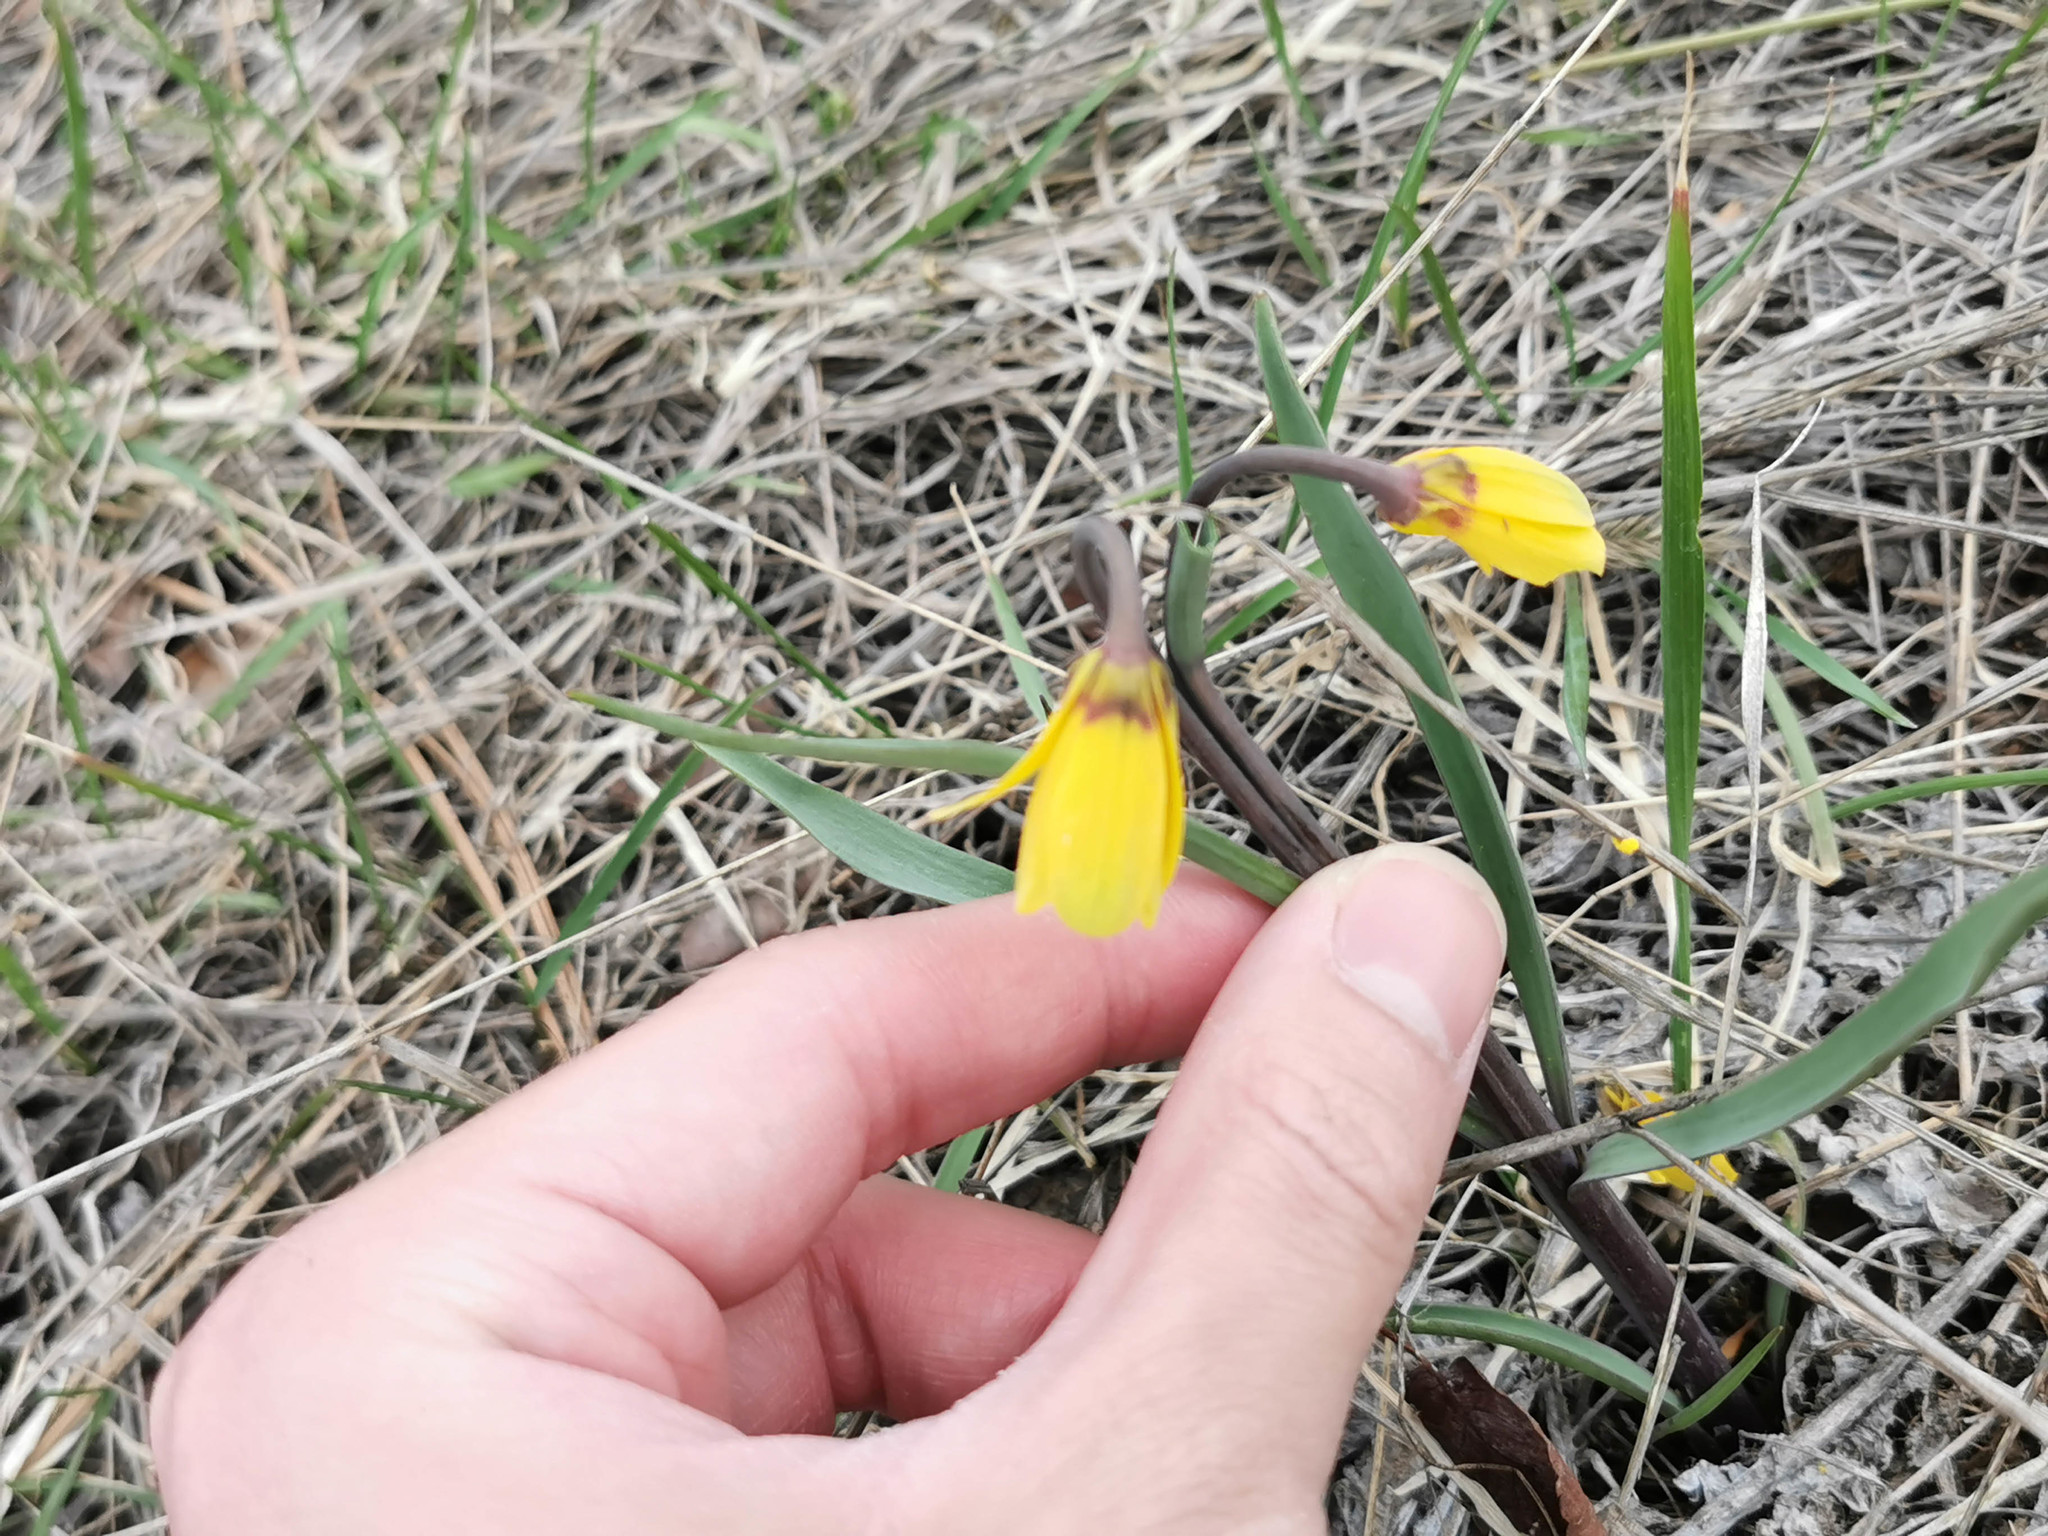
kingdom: Plantae
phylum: Tracheophyta
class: Liliopsida
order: Liliales
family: Liliaceae
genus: Fritillaria
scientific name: Fritillaria pudica
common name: Yellow fritillary
